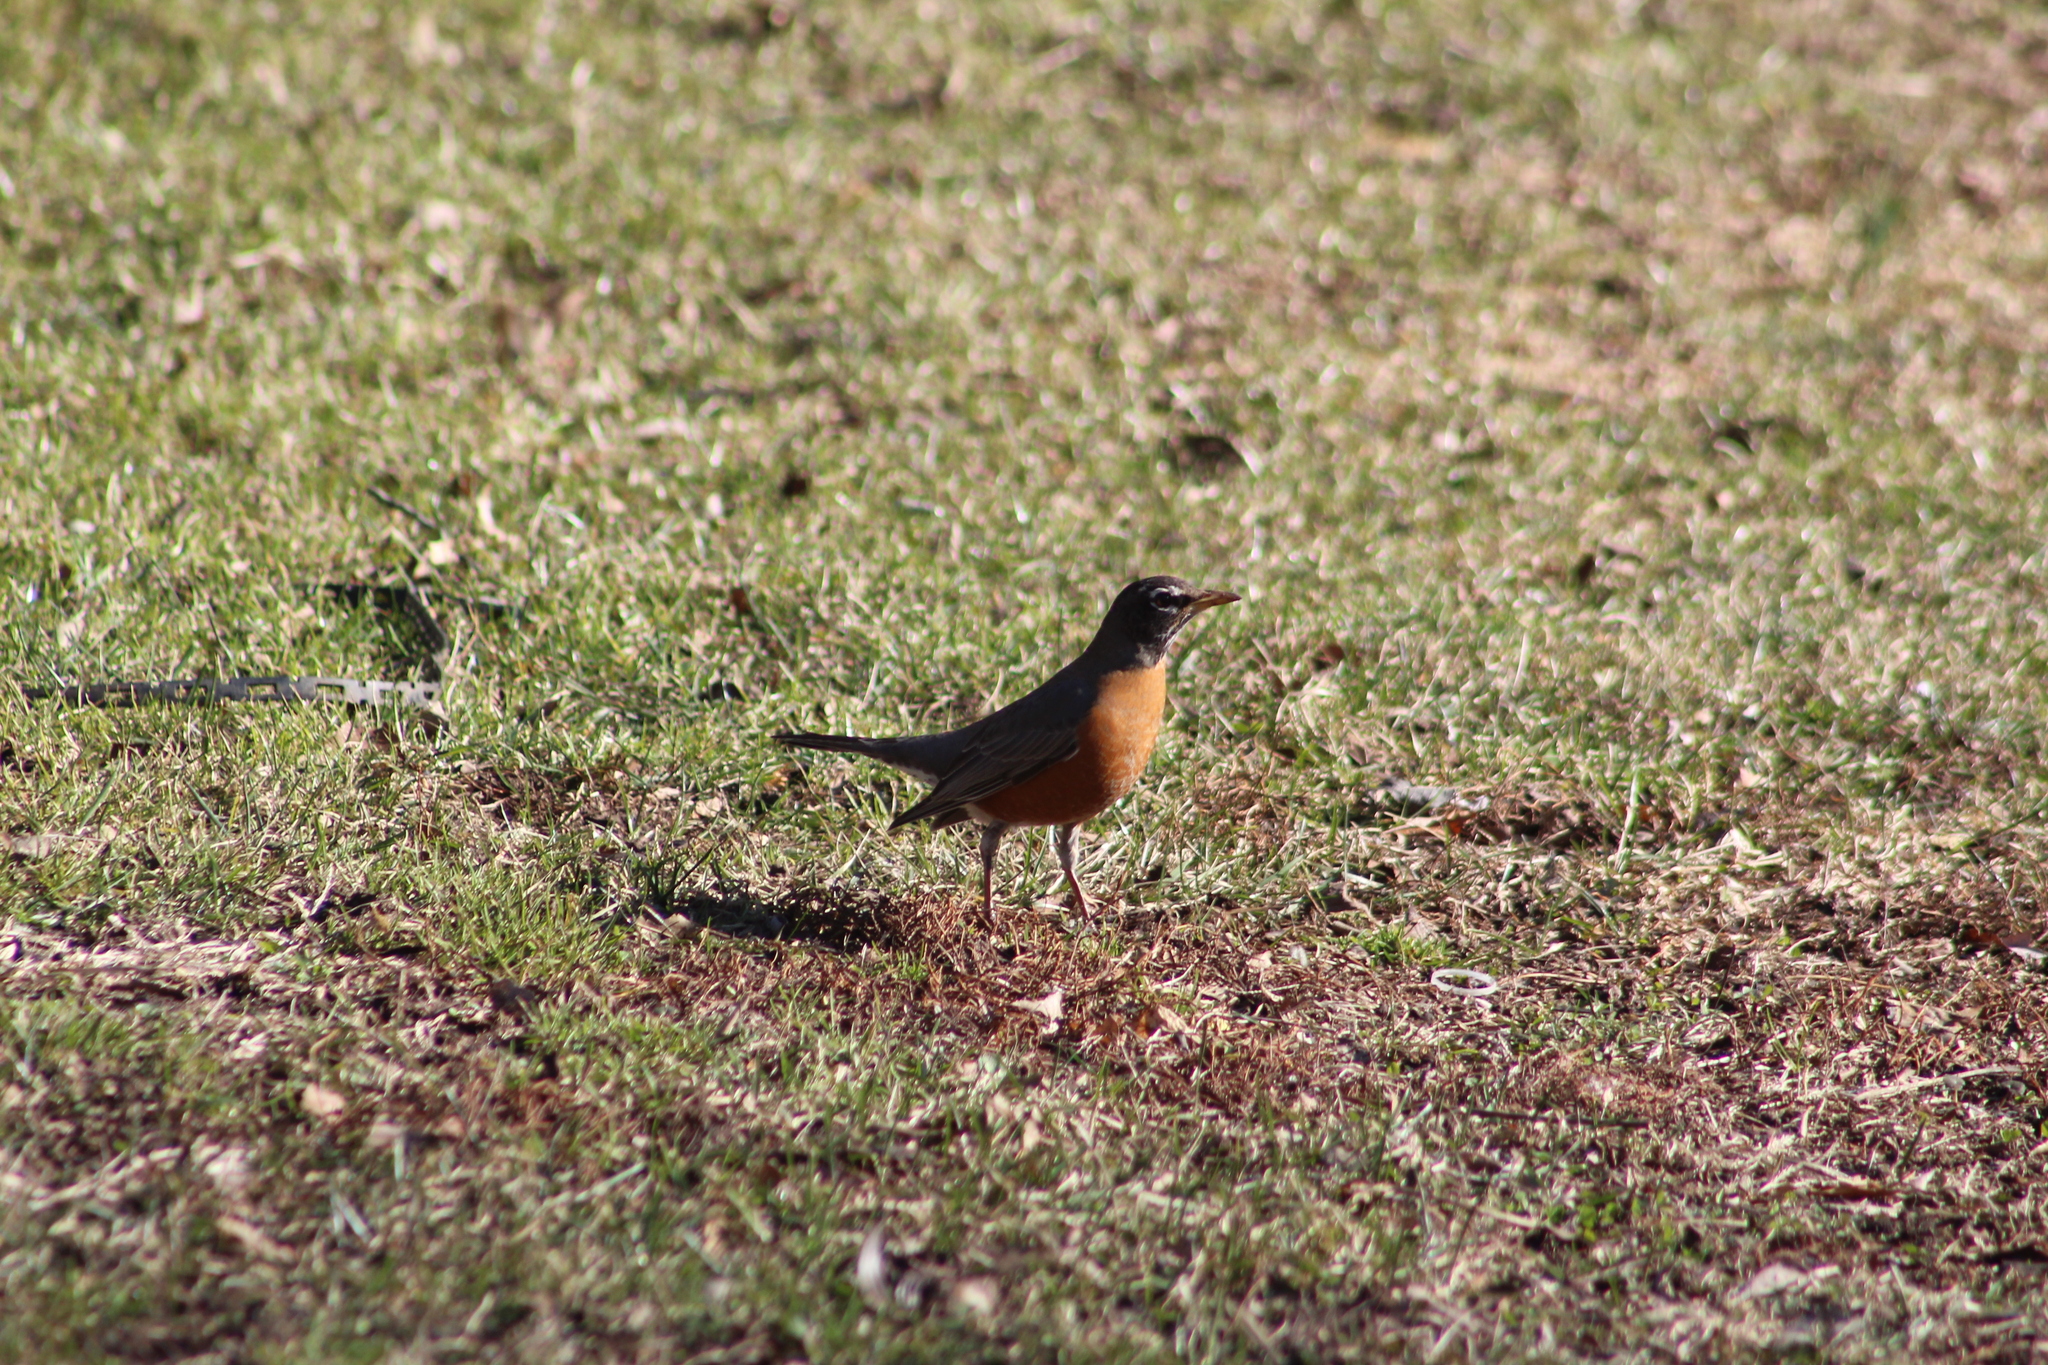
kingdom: Animalia
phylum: Chordata
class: Aves
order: Passeriformes
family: Turdidae
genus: Turdus
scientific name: Turdus migratorius
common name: American robin
